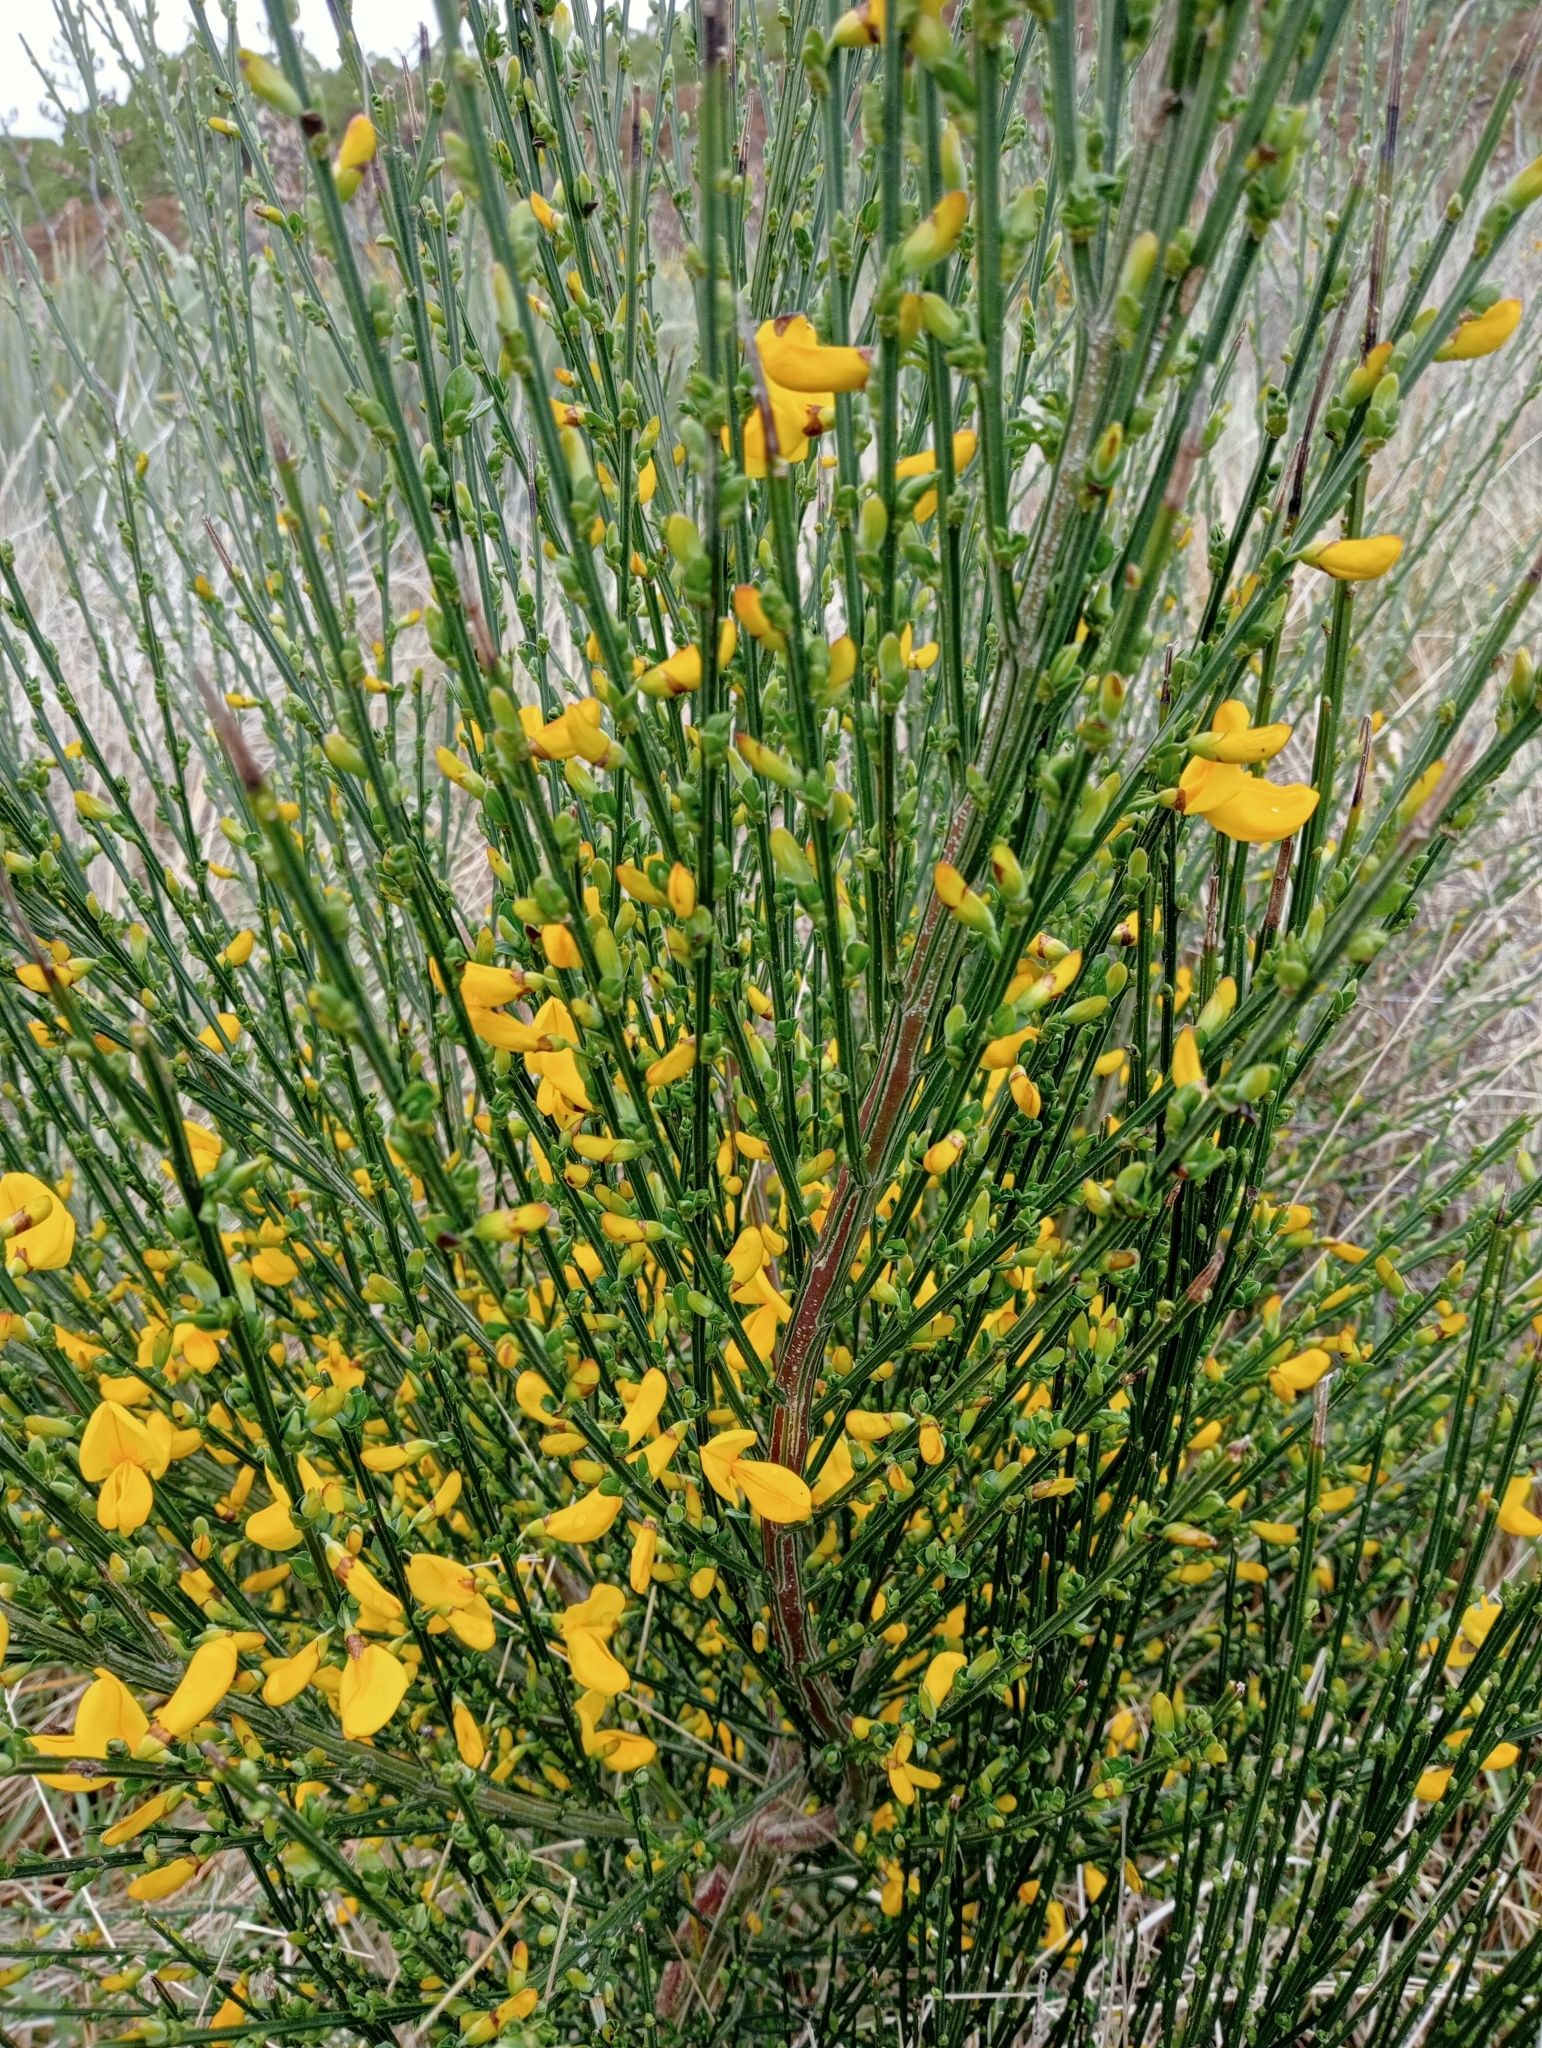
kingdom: Plantae
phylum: Tracheophyta
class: Magnoliopsida
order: Fabales
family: Fabaceae
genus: Cytisus
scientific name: Cytisus scoparius
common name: Scotch broom
